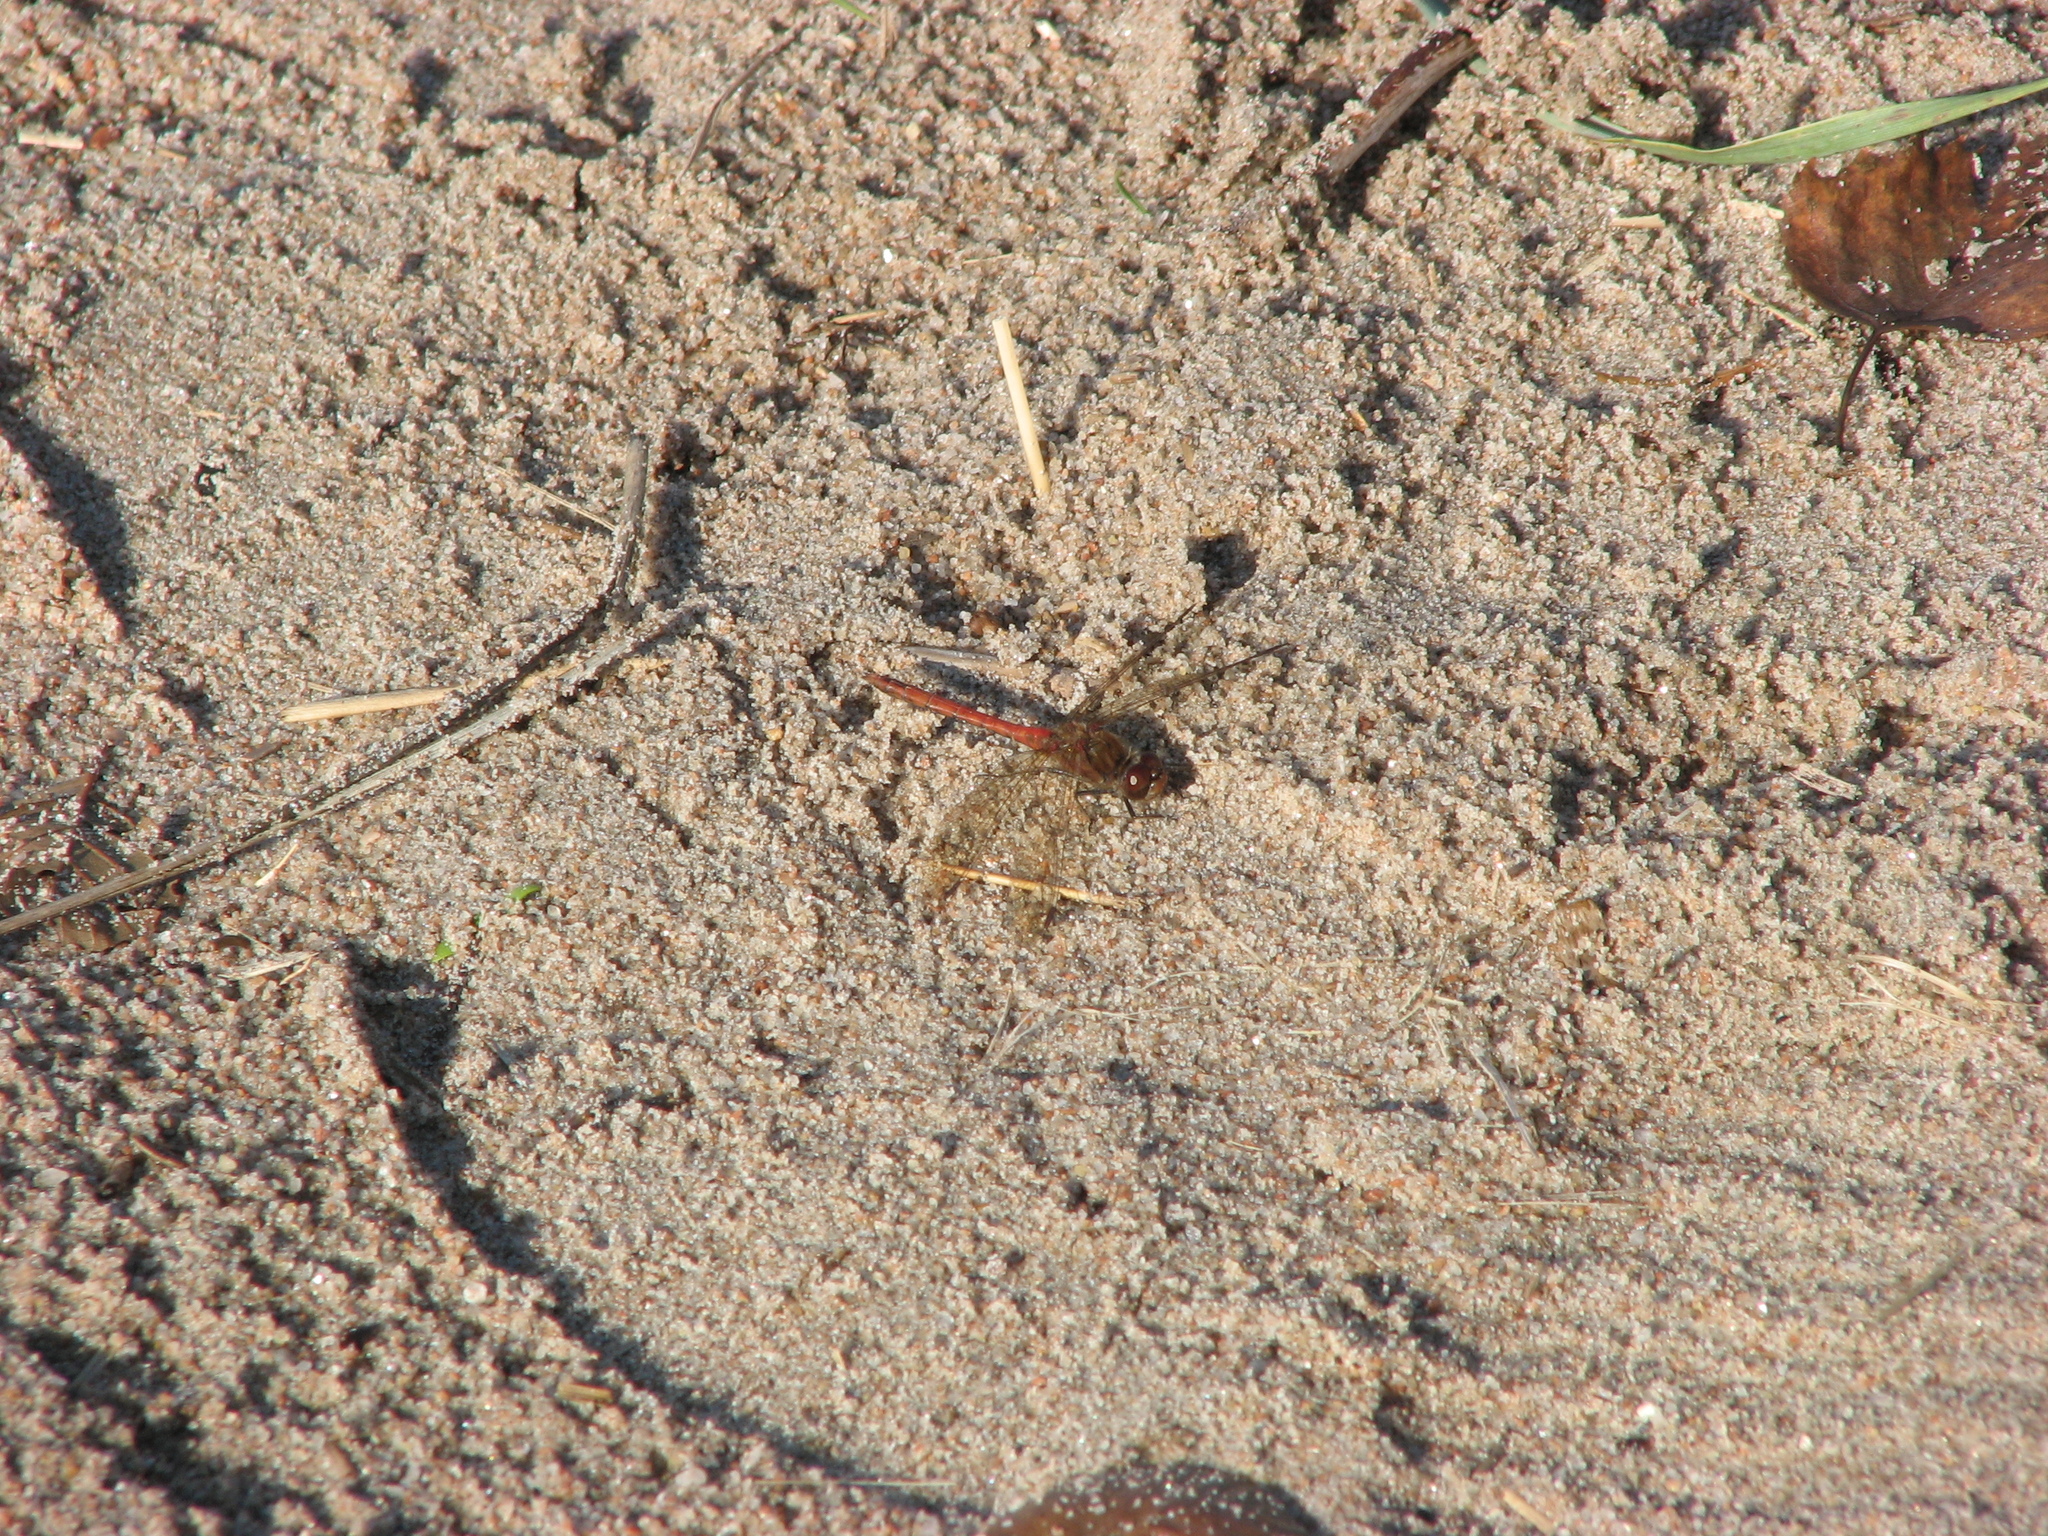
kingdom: Animalia
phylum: Arthropoda
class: Insecta
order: Odonata
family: Libellulidae
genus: Sympetrum
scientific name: Sympetrum striolatum
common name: Common darter
